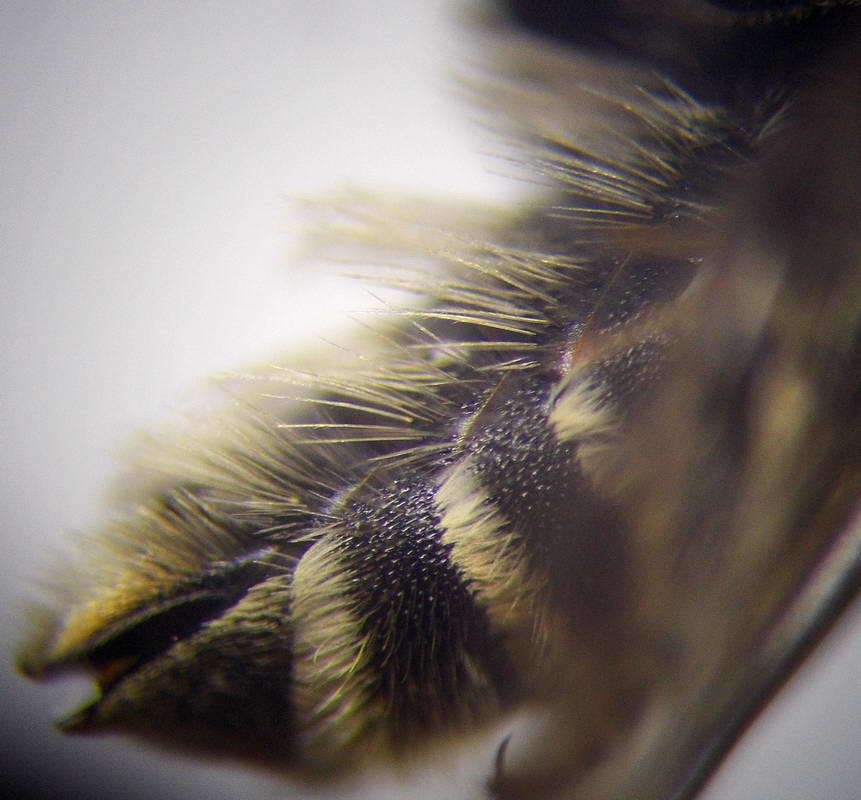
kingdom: Animalia
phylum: Arthropoda
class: Insecta
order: Hymenoptera
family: Megachilidae
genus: Hoplitis
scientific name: Hoplitis jakovlevi
